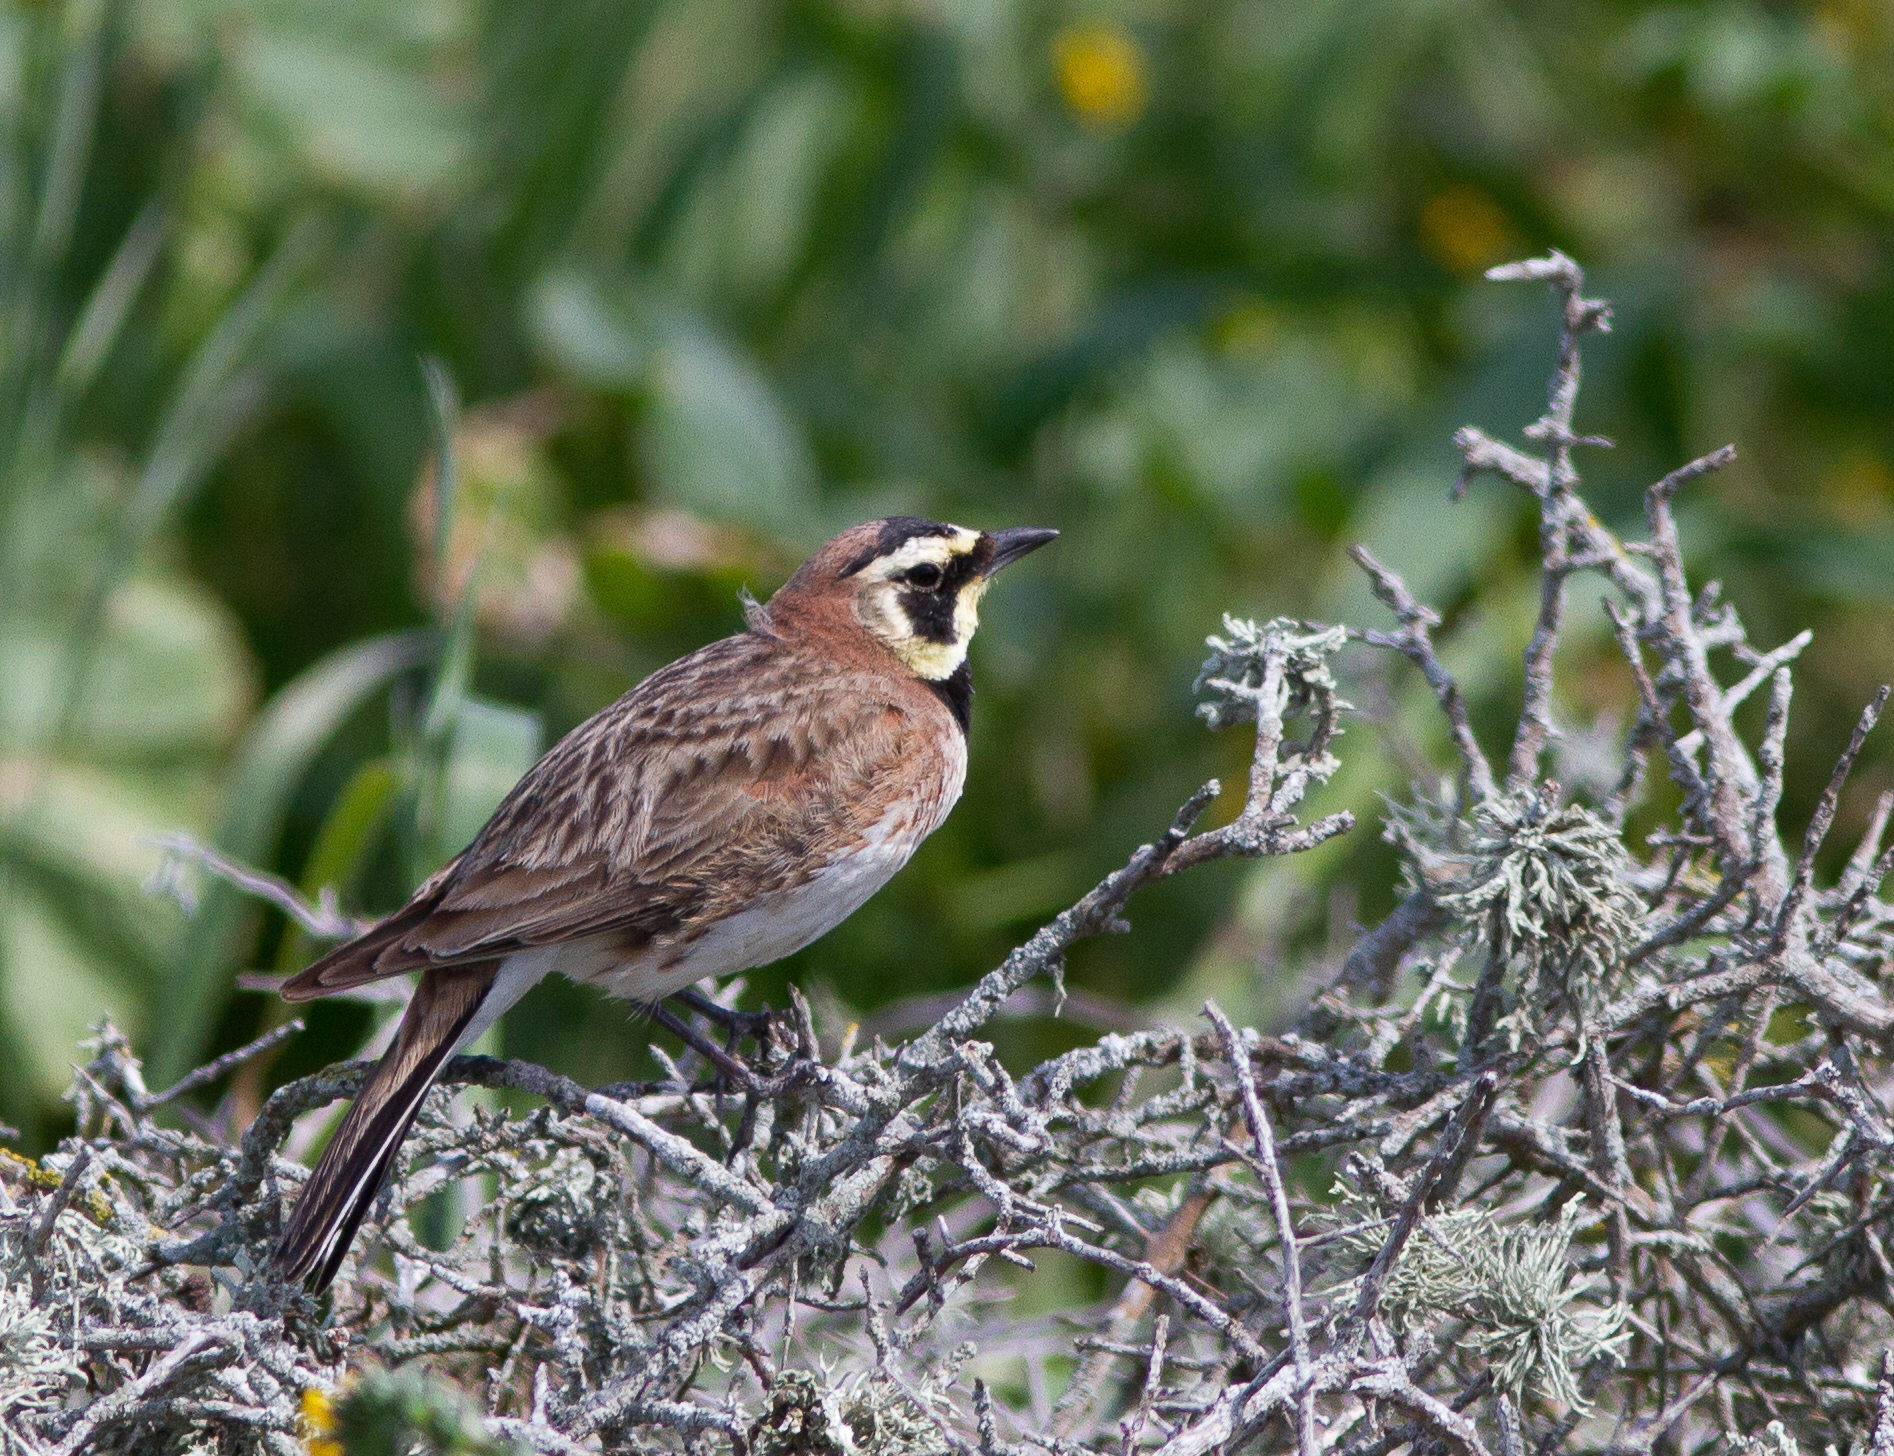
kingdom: Animalia
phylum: Chordata
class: Aves
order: Passeriformes
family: Alaudidae
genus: Eremophila
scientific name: Eremophila alpestris
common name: Horned lark
